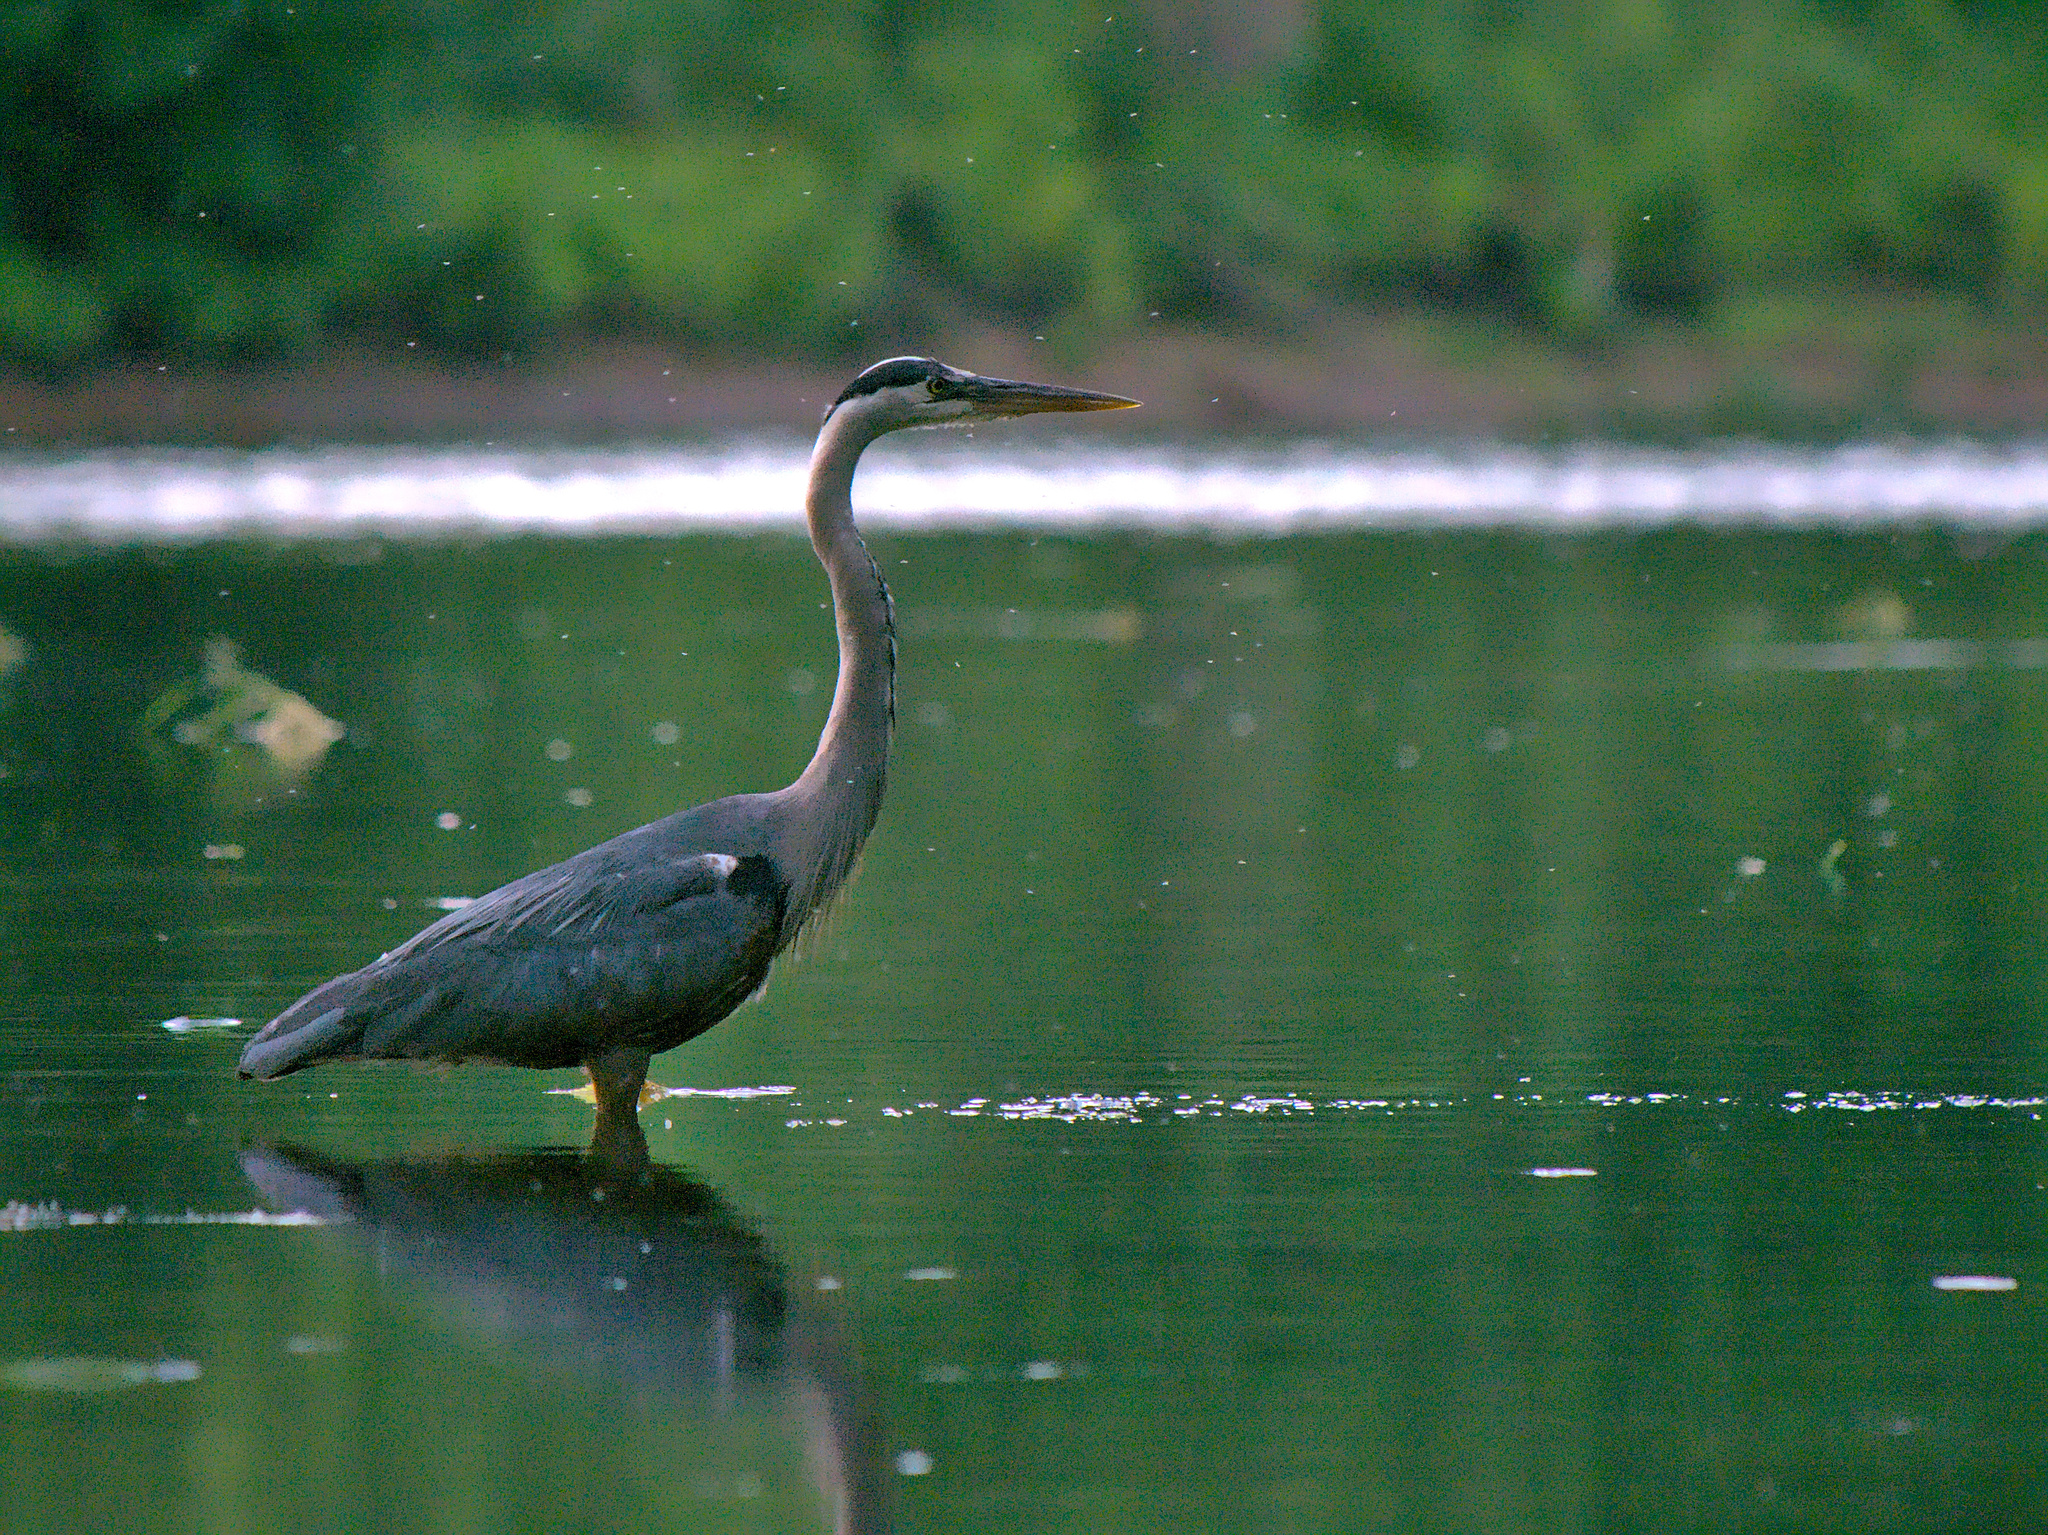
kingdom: Animalia
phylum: Chordata
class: Aves
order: Pelecaniformes
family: Ardeidae
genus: Ardea
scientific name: Ardea herodias
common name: Great blue heron
